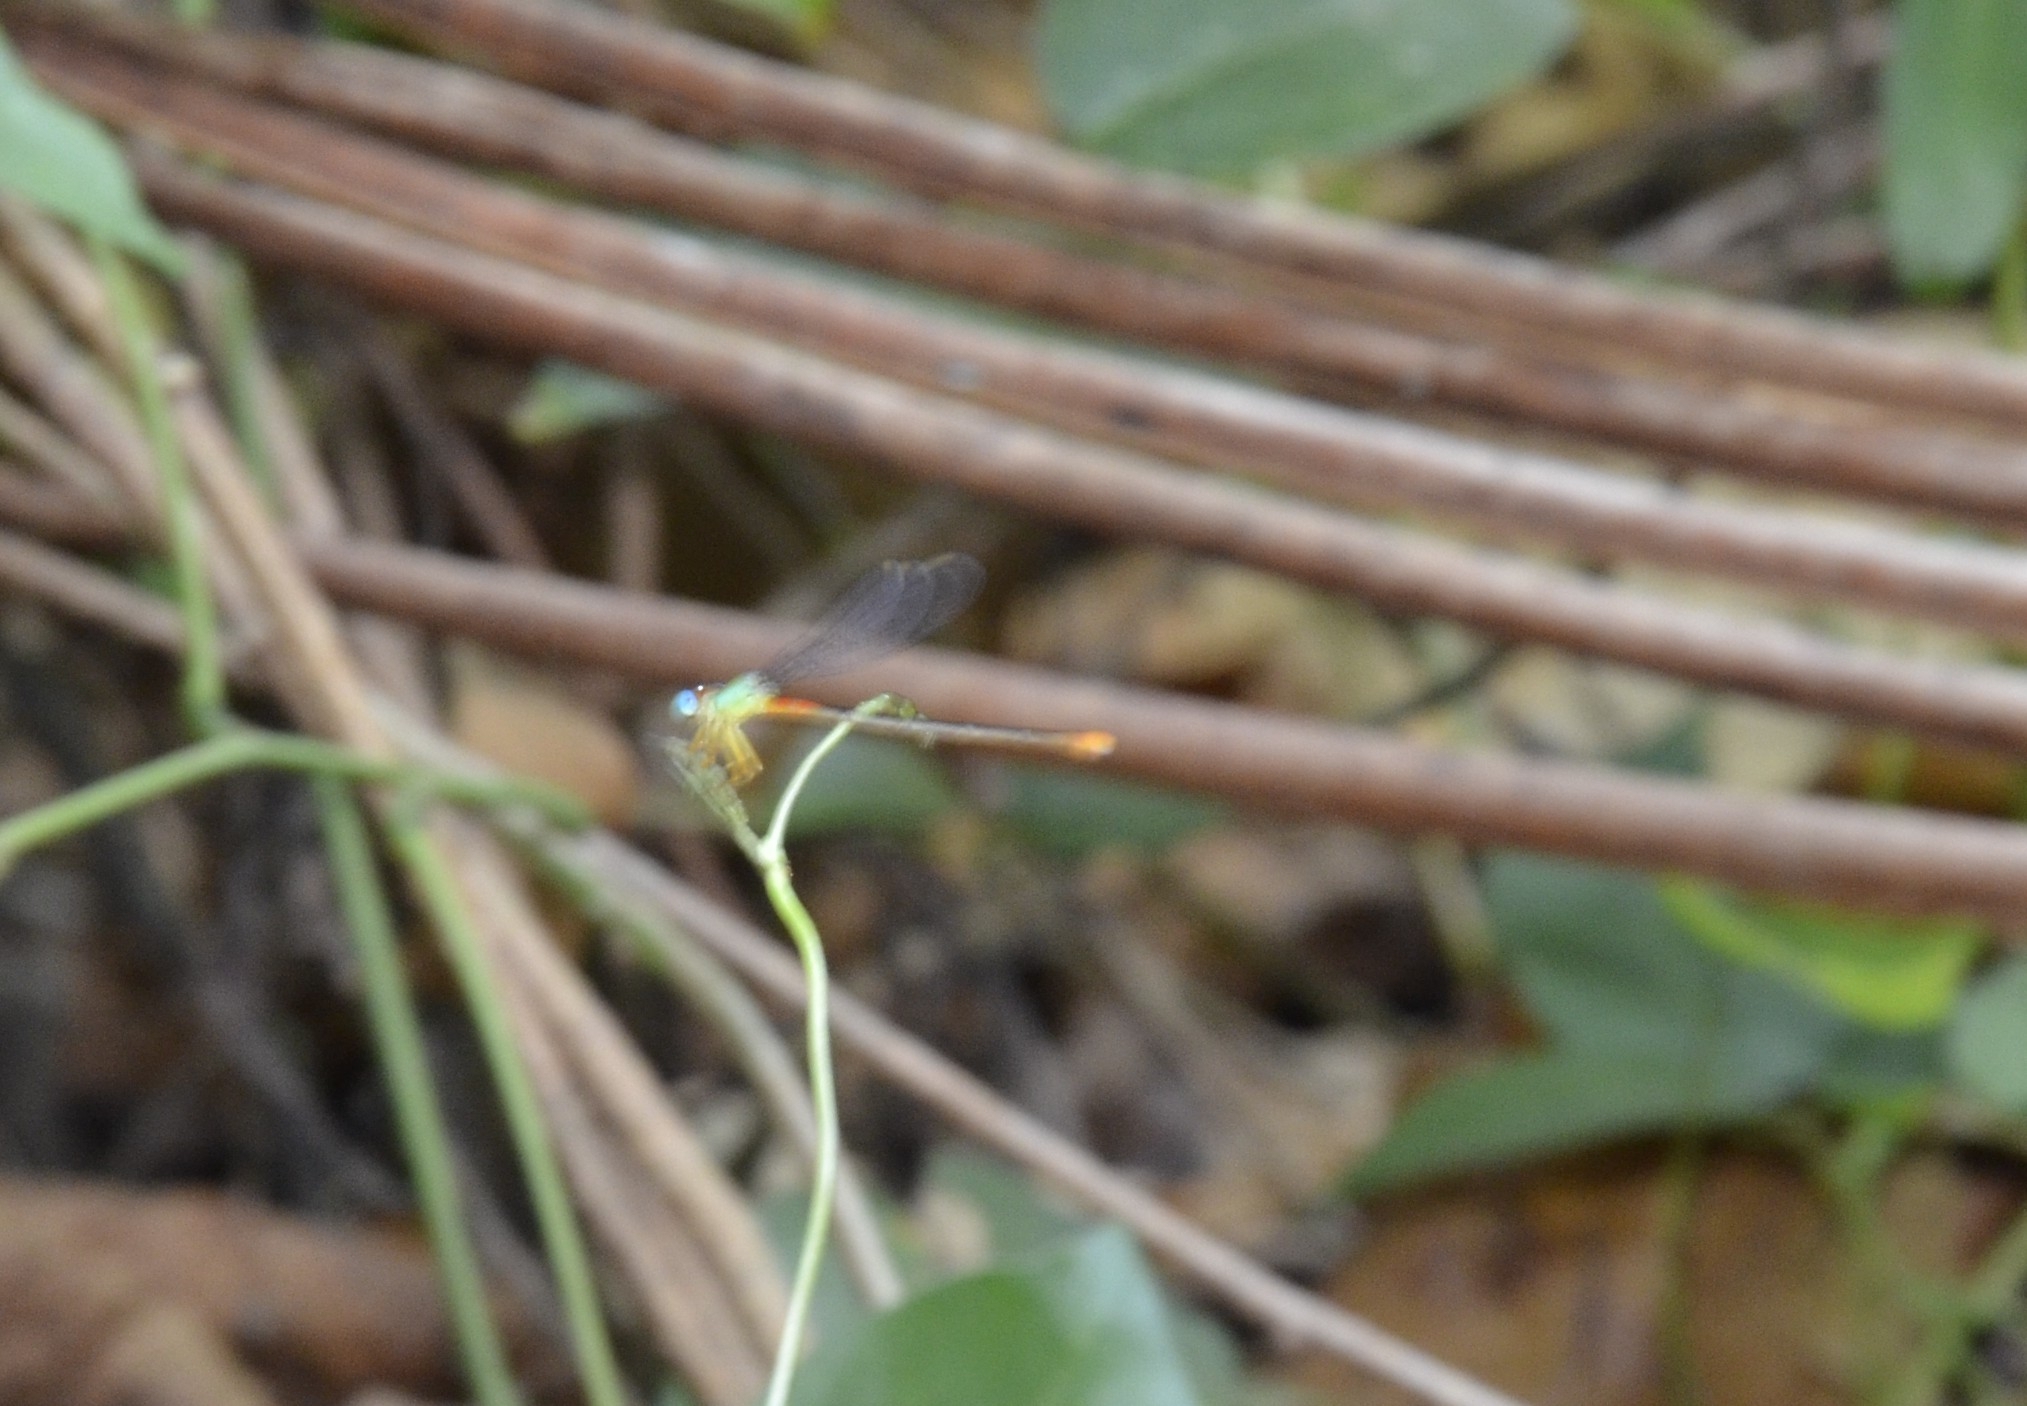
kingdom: Animalia
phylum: Arthropoda
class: Insecta
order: Odonata
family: Coenagrionidae
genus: Ceriagrion
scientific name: Ceriagrion cerinorubellum
